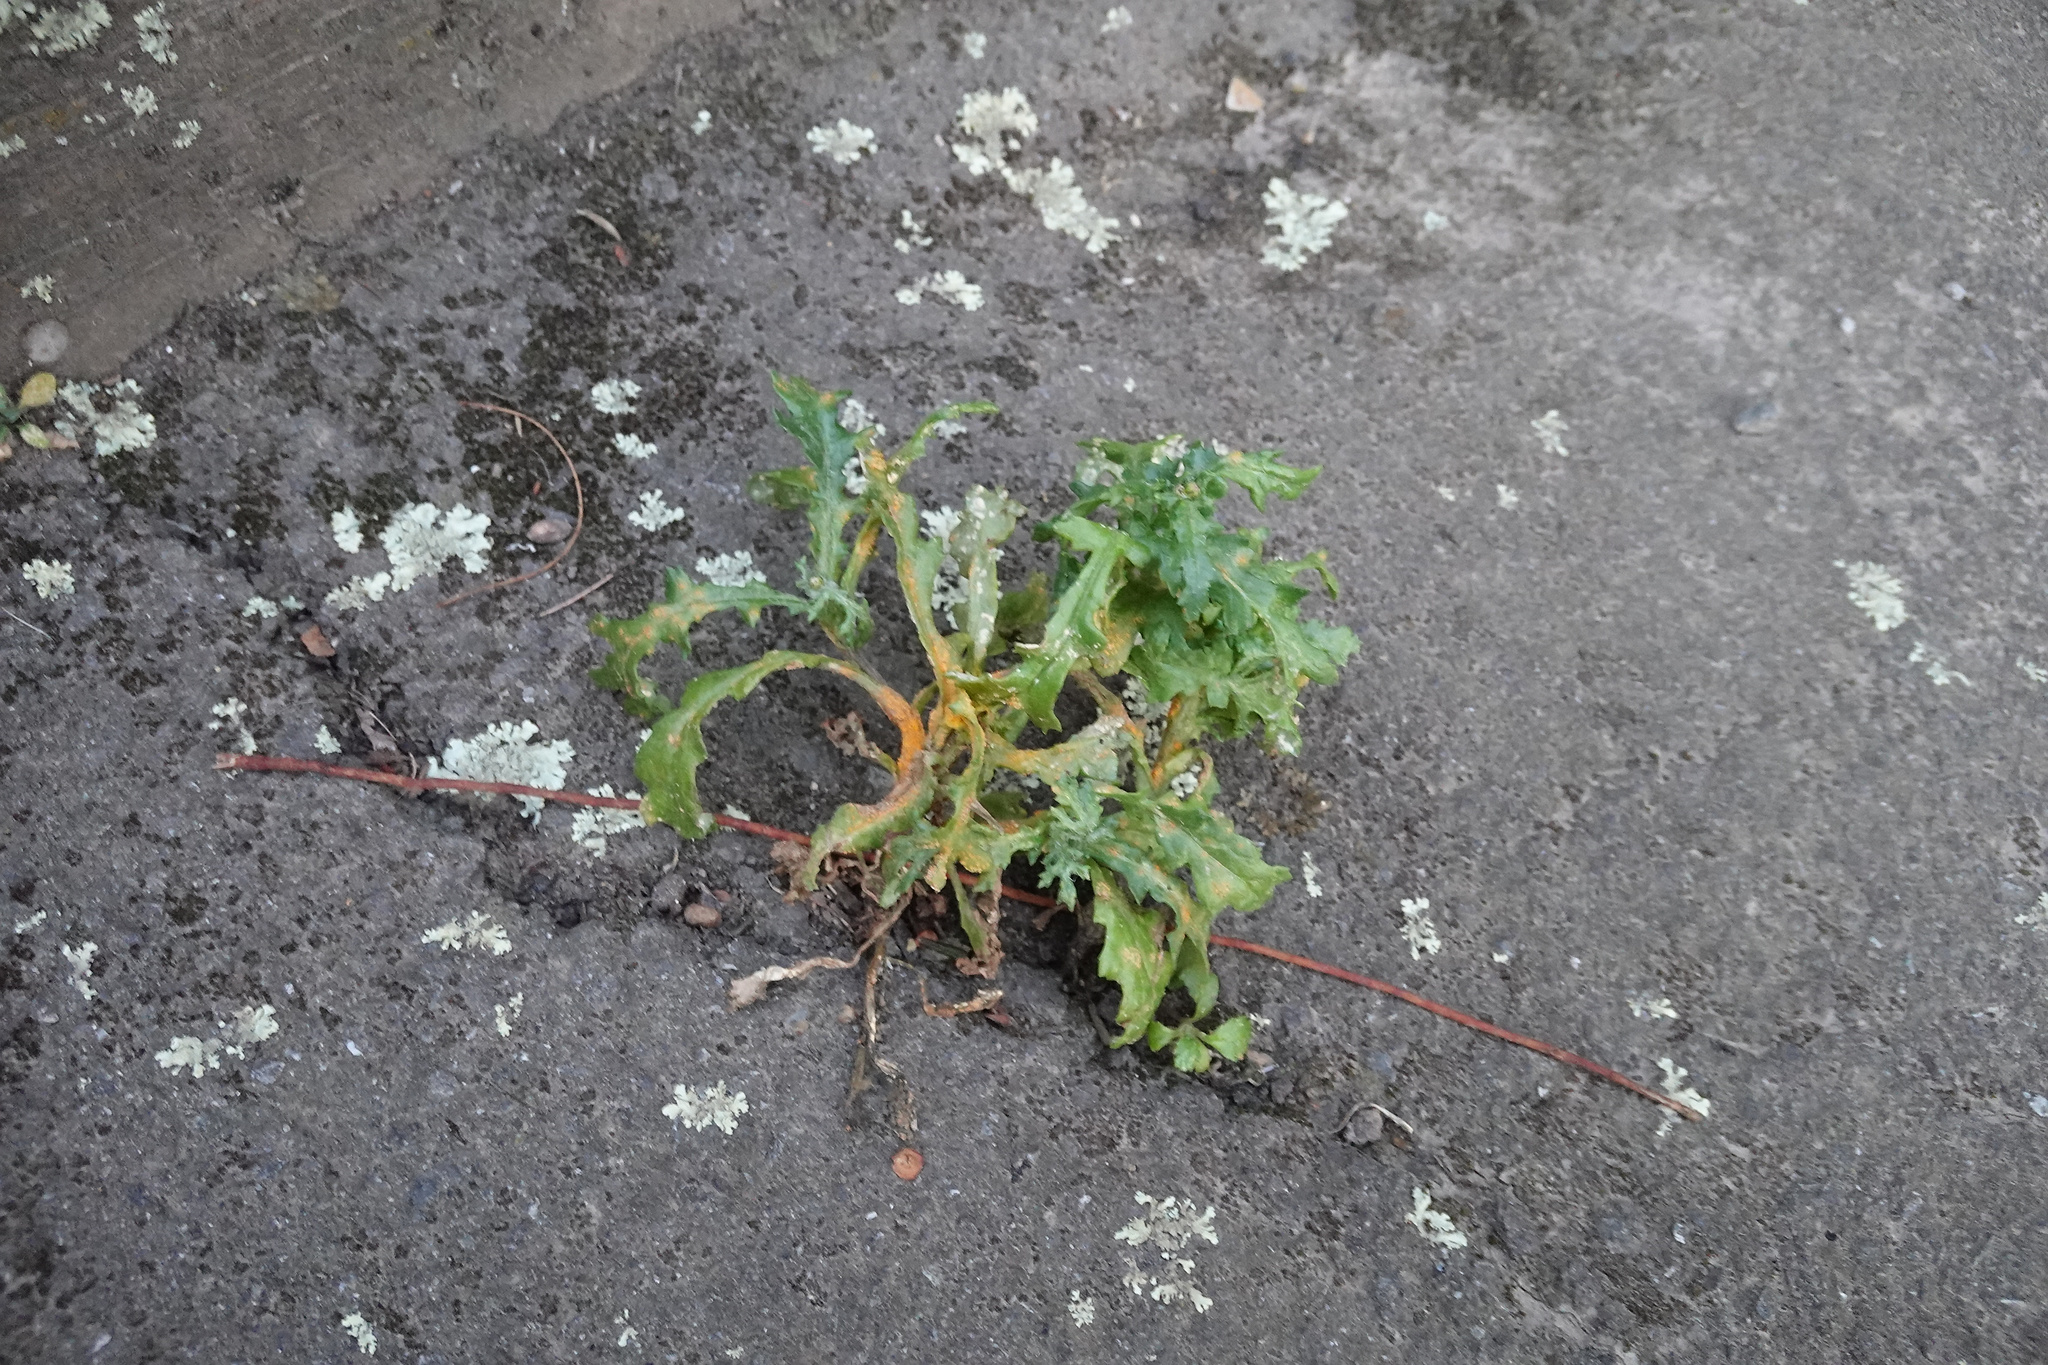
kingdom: Plantae
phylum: Tracheophyta
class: Magnoliopsida
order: Asterales
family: Asteraceae
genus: Senecio
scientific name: Senecio vulgaris
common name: Old-man-in-the-spring
